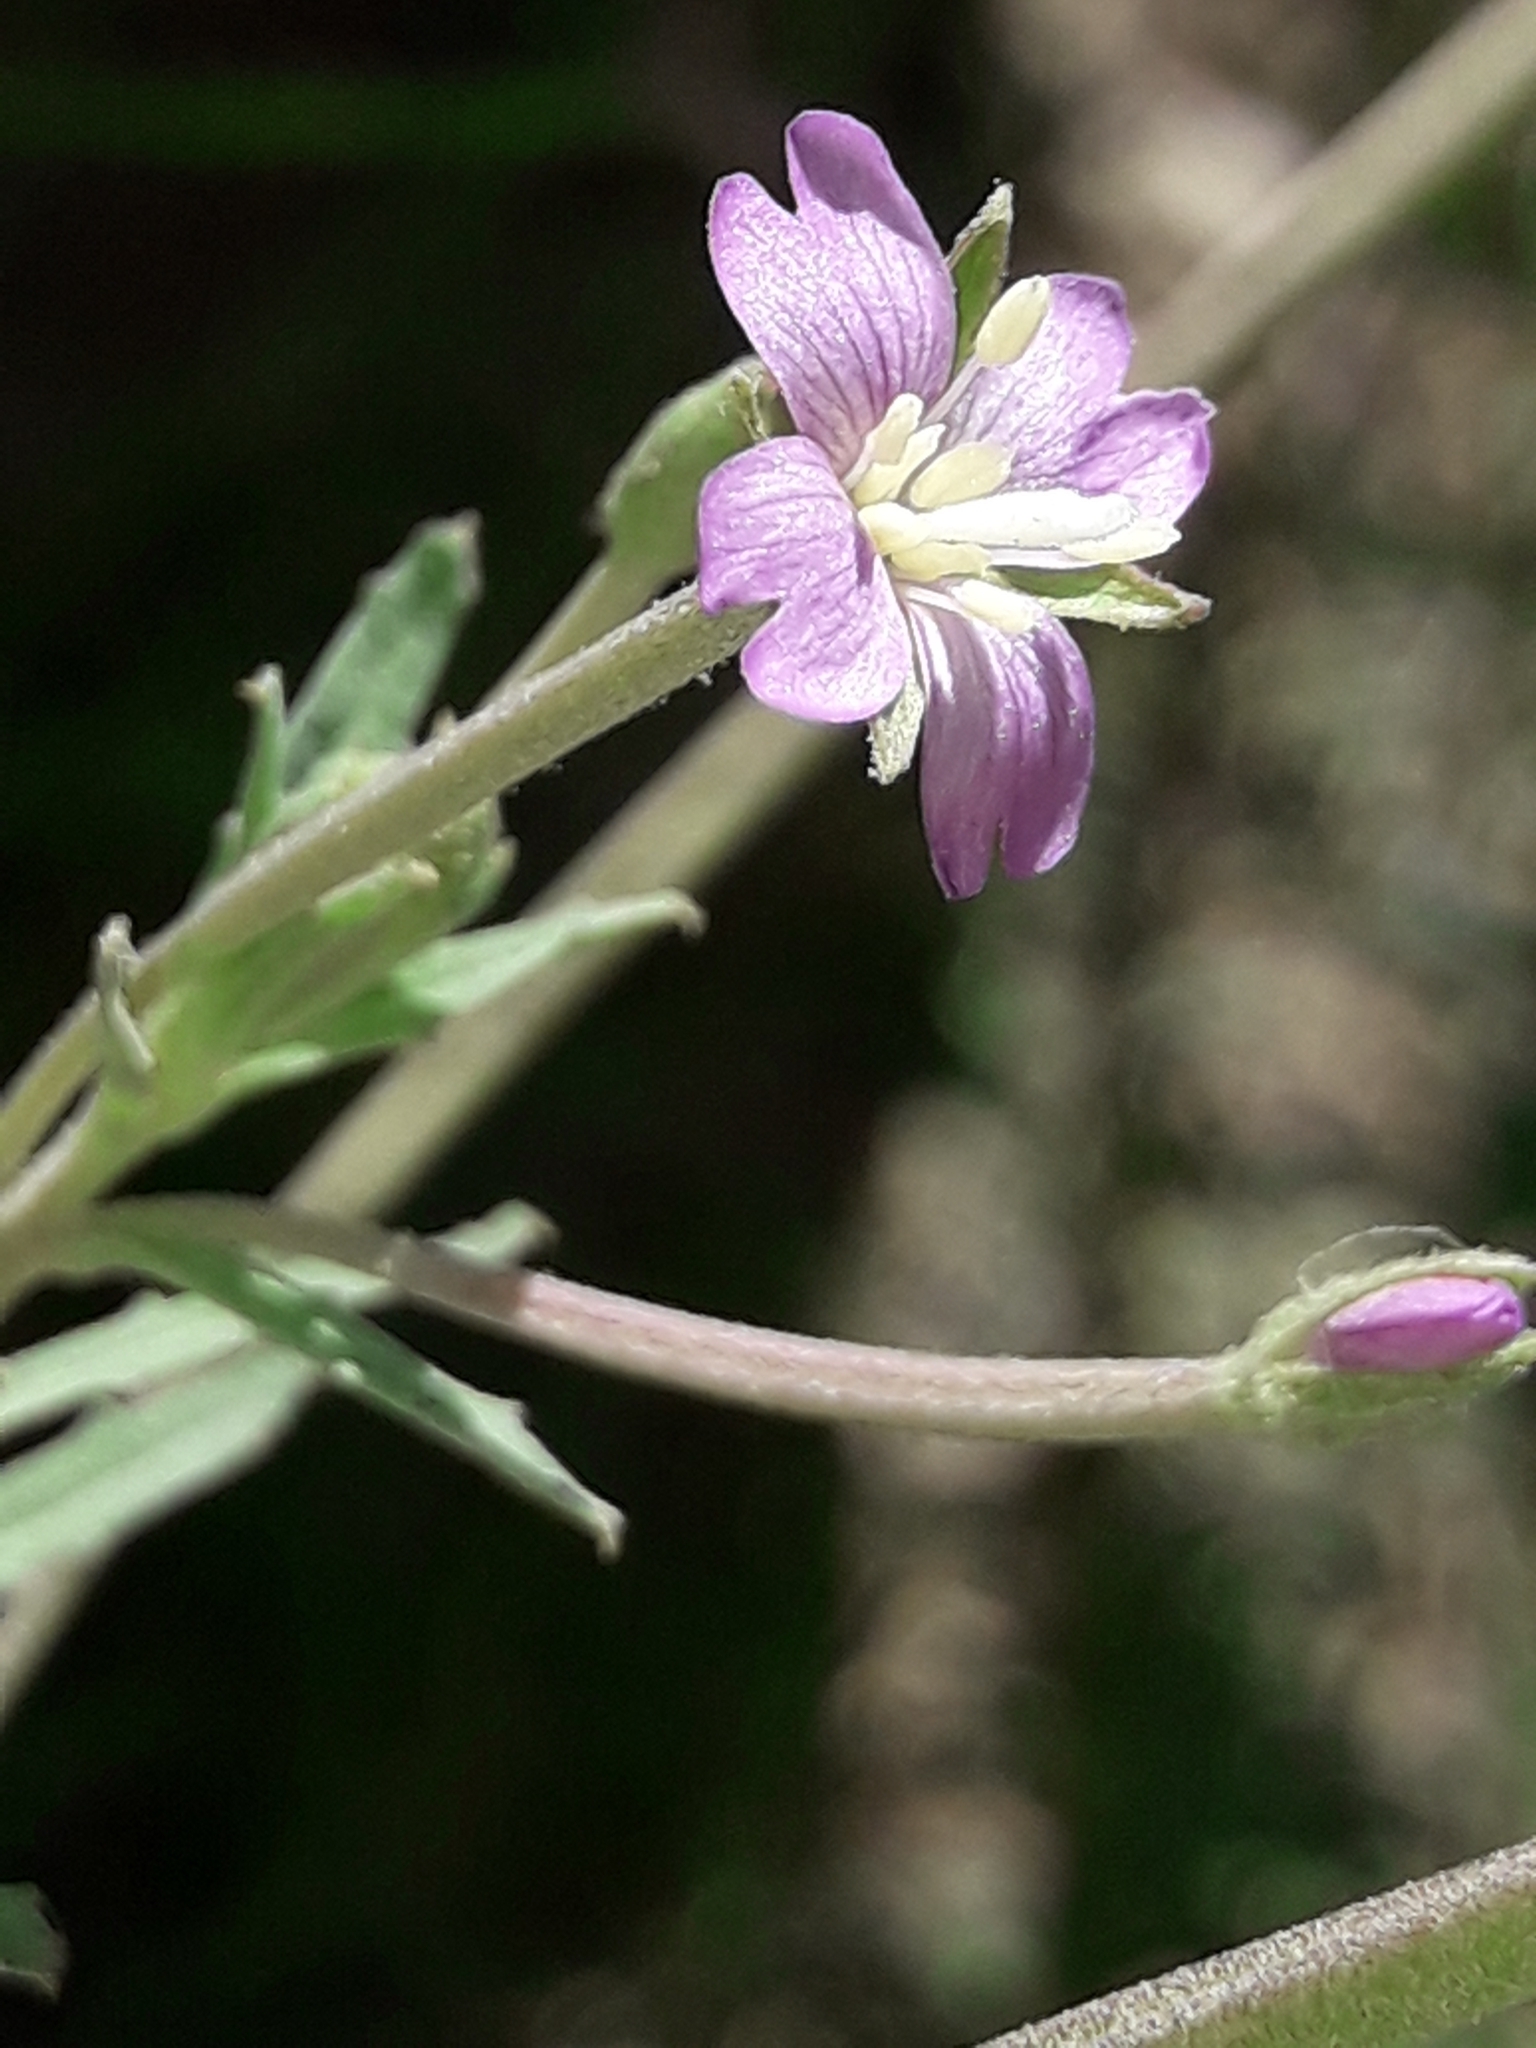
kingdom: Plantae
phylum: Tracheophyta
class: Magnoliopsida
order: Myrtales
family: Onagraceae
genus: Epilobium
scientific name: Epilobium billardiereanum
